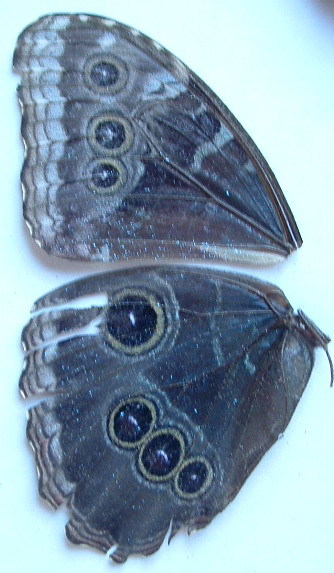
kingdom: Animalia
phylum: Arthropoda
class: Insecta
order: Lepidoptera
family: Nymphalidae
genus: Morpho
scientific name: Morpho helenor
